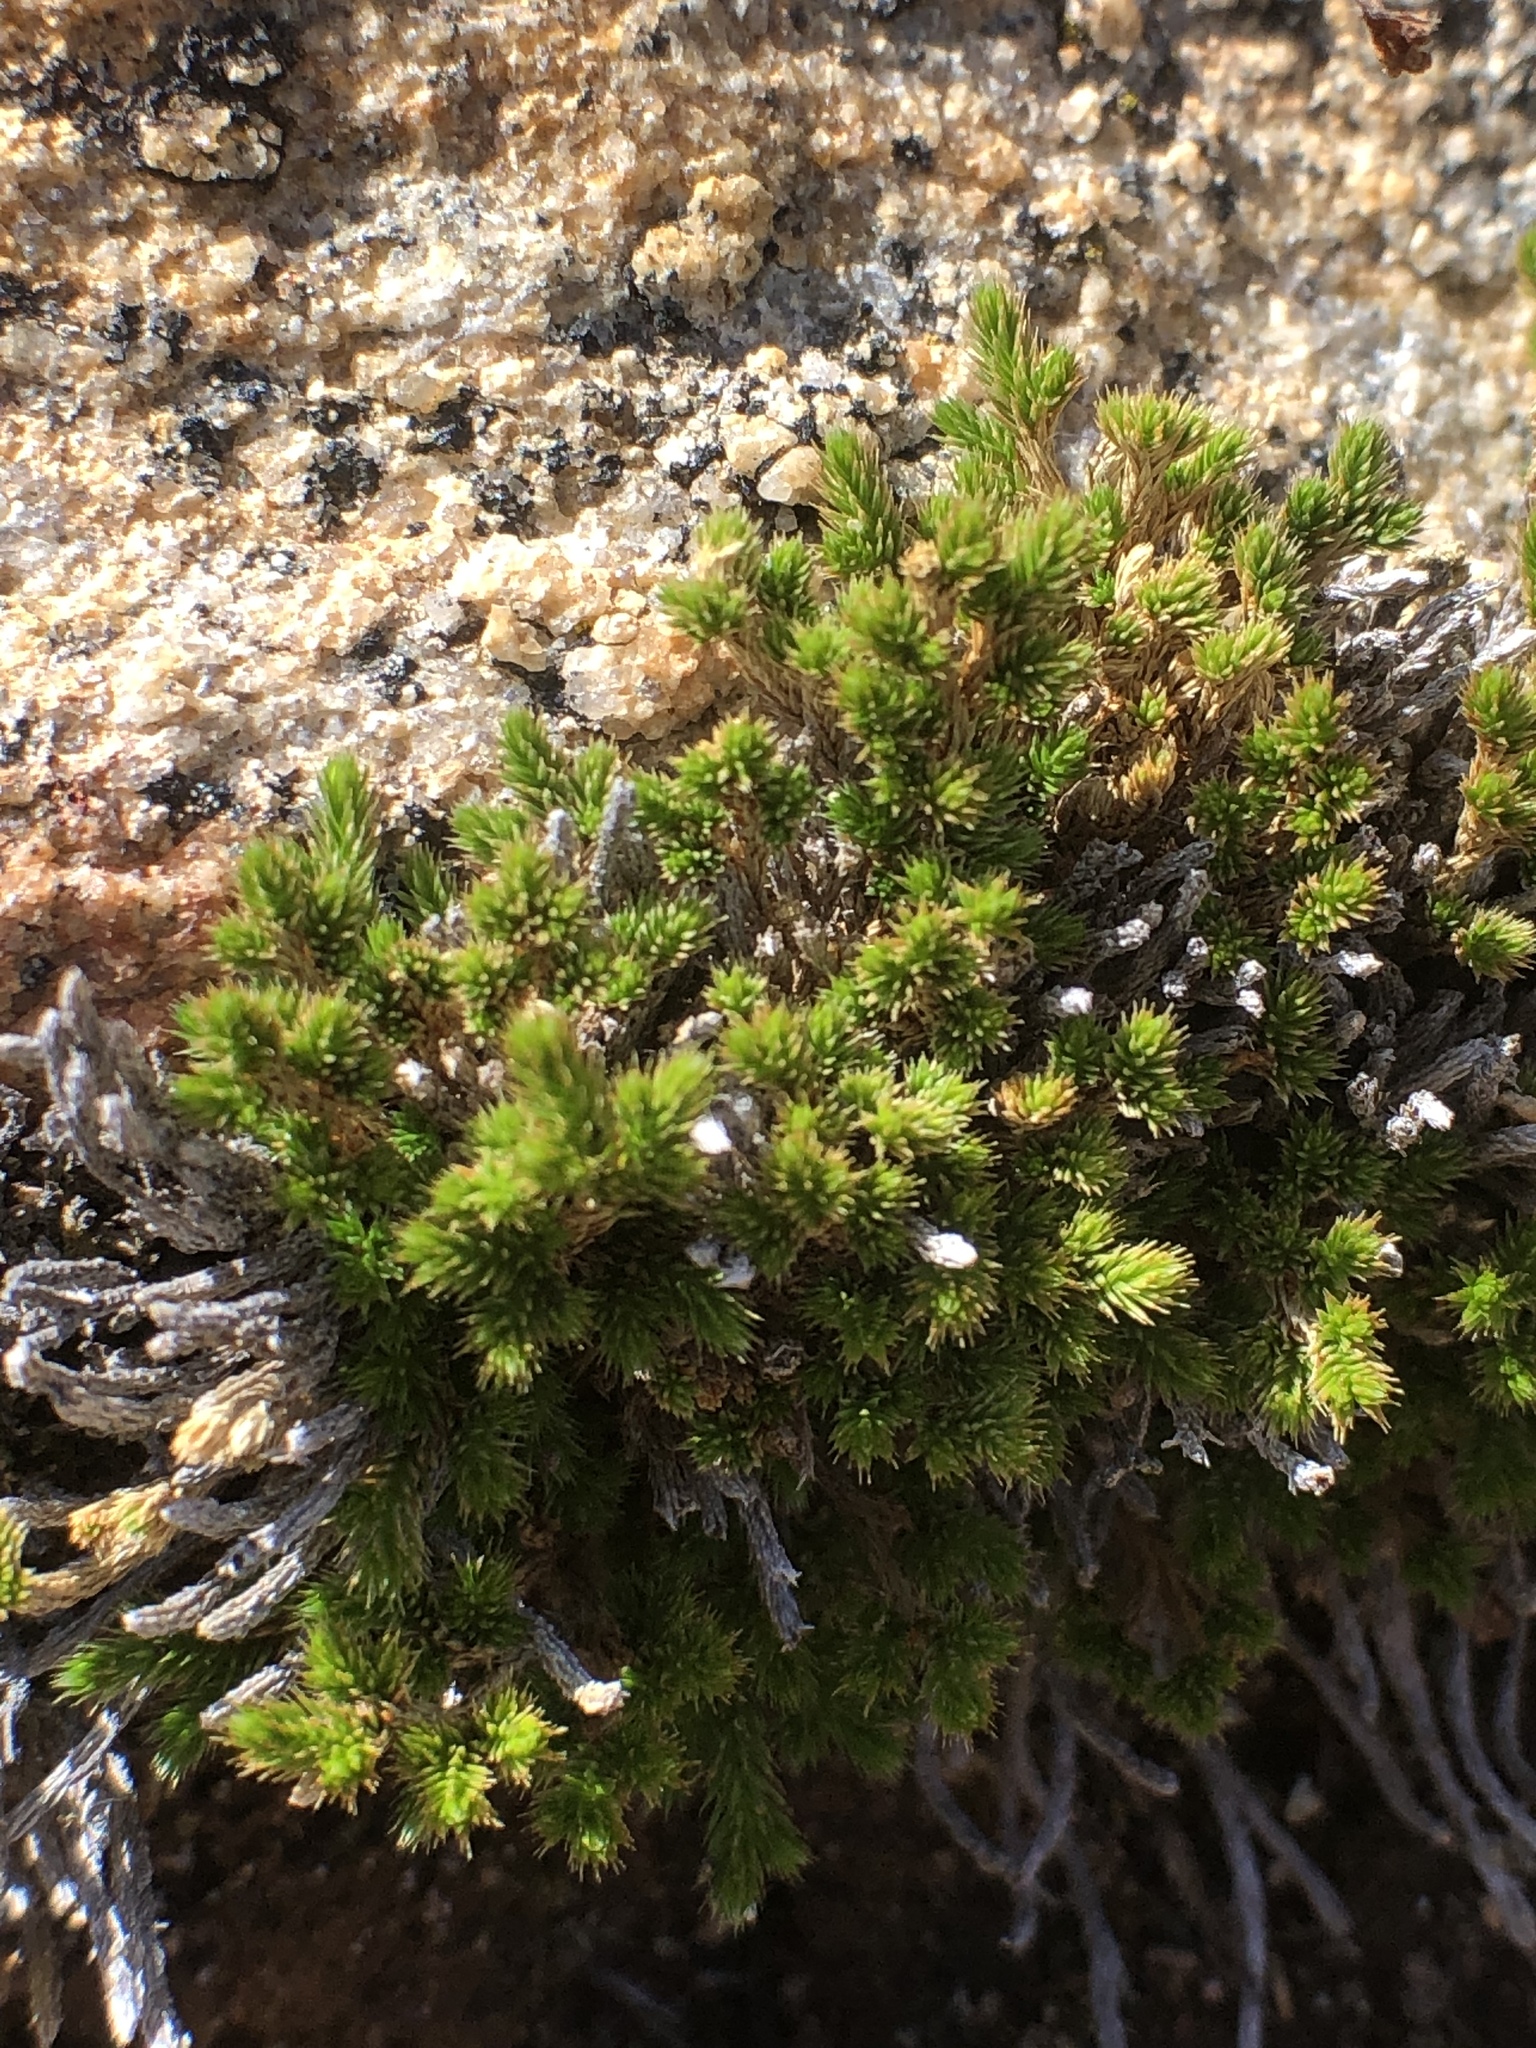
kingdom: Plantae
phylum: Tracheophyta
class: Lycopodiopsida
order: Selaginellales
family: Selaginellaceae
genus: Selaginella
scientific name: Selaginella bigelovii
